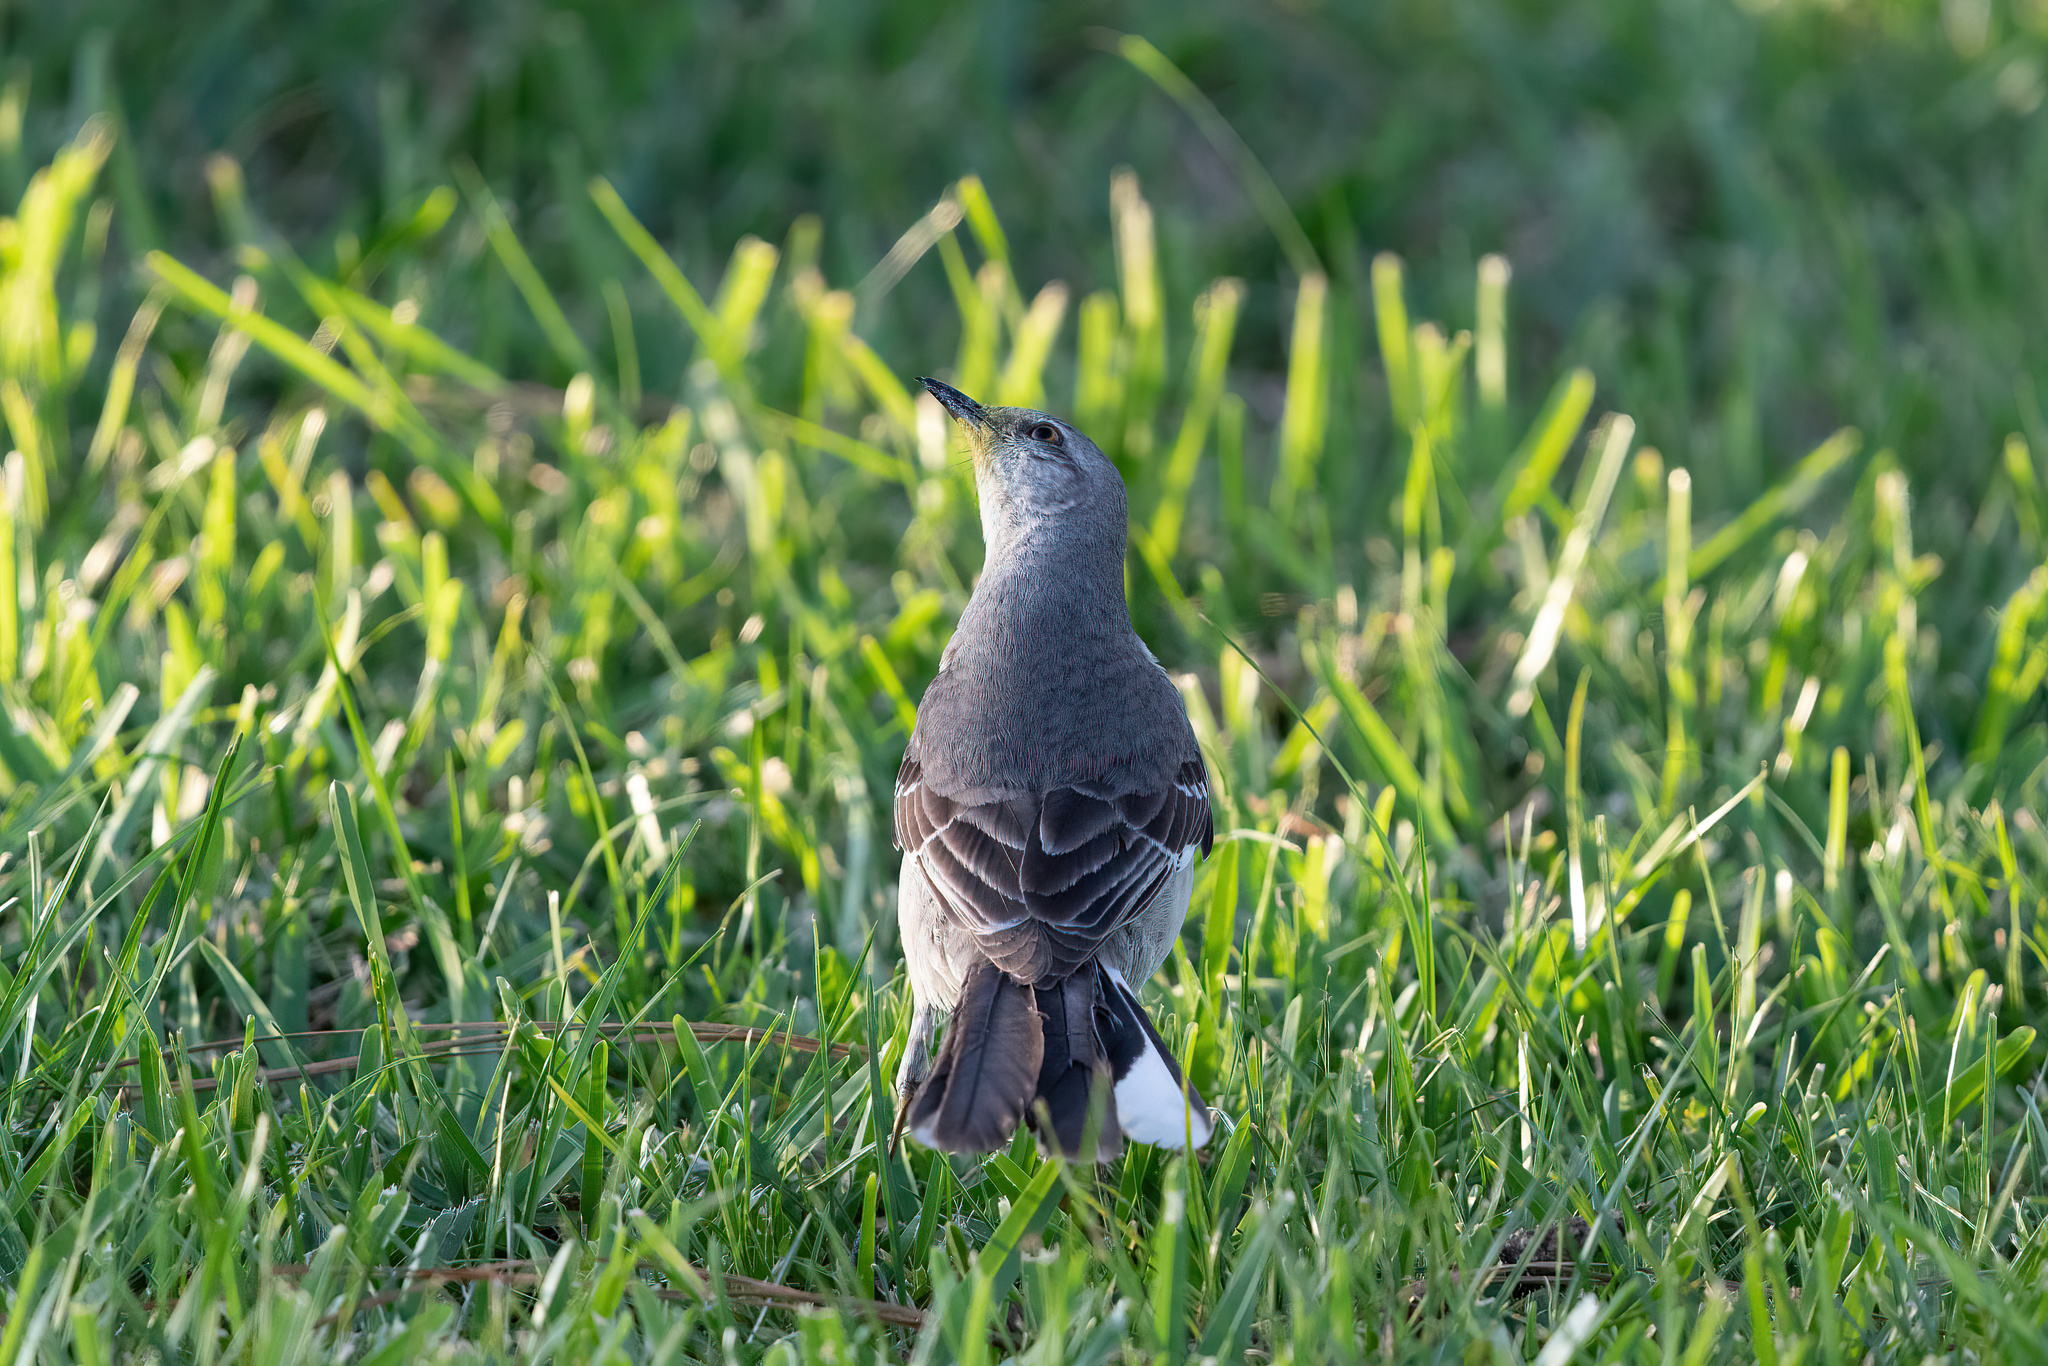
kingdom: Animalia
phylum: Chordata
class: Aves
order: Passeriformes
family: Mimidae
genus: Mimus
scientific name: Mimus polyglottos
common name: Northern mockingbird
